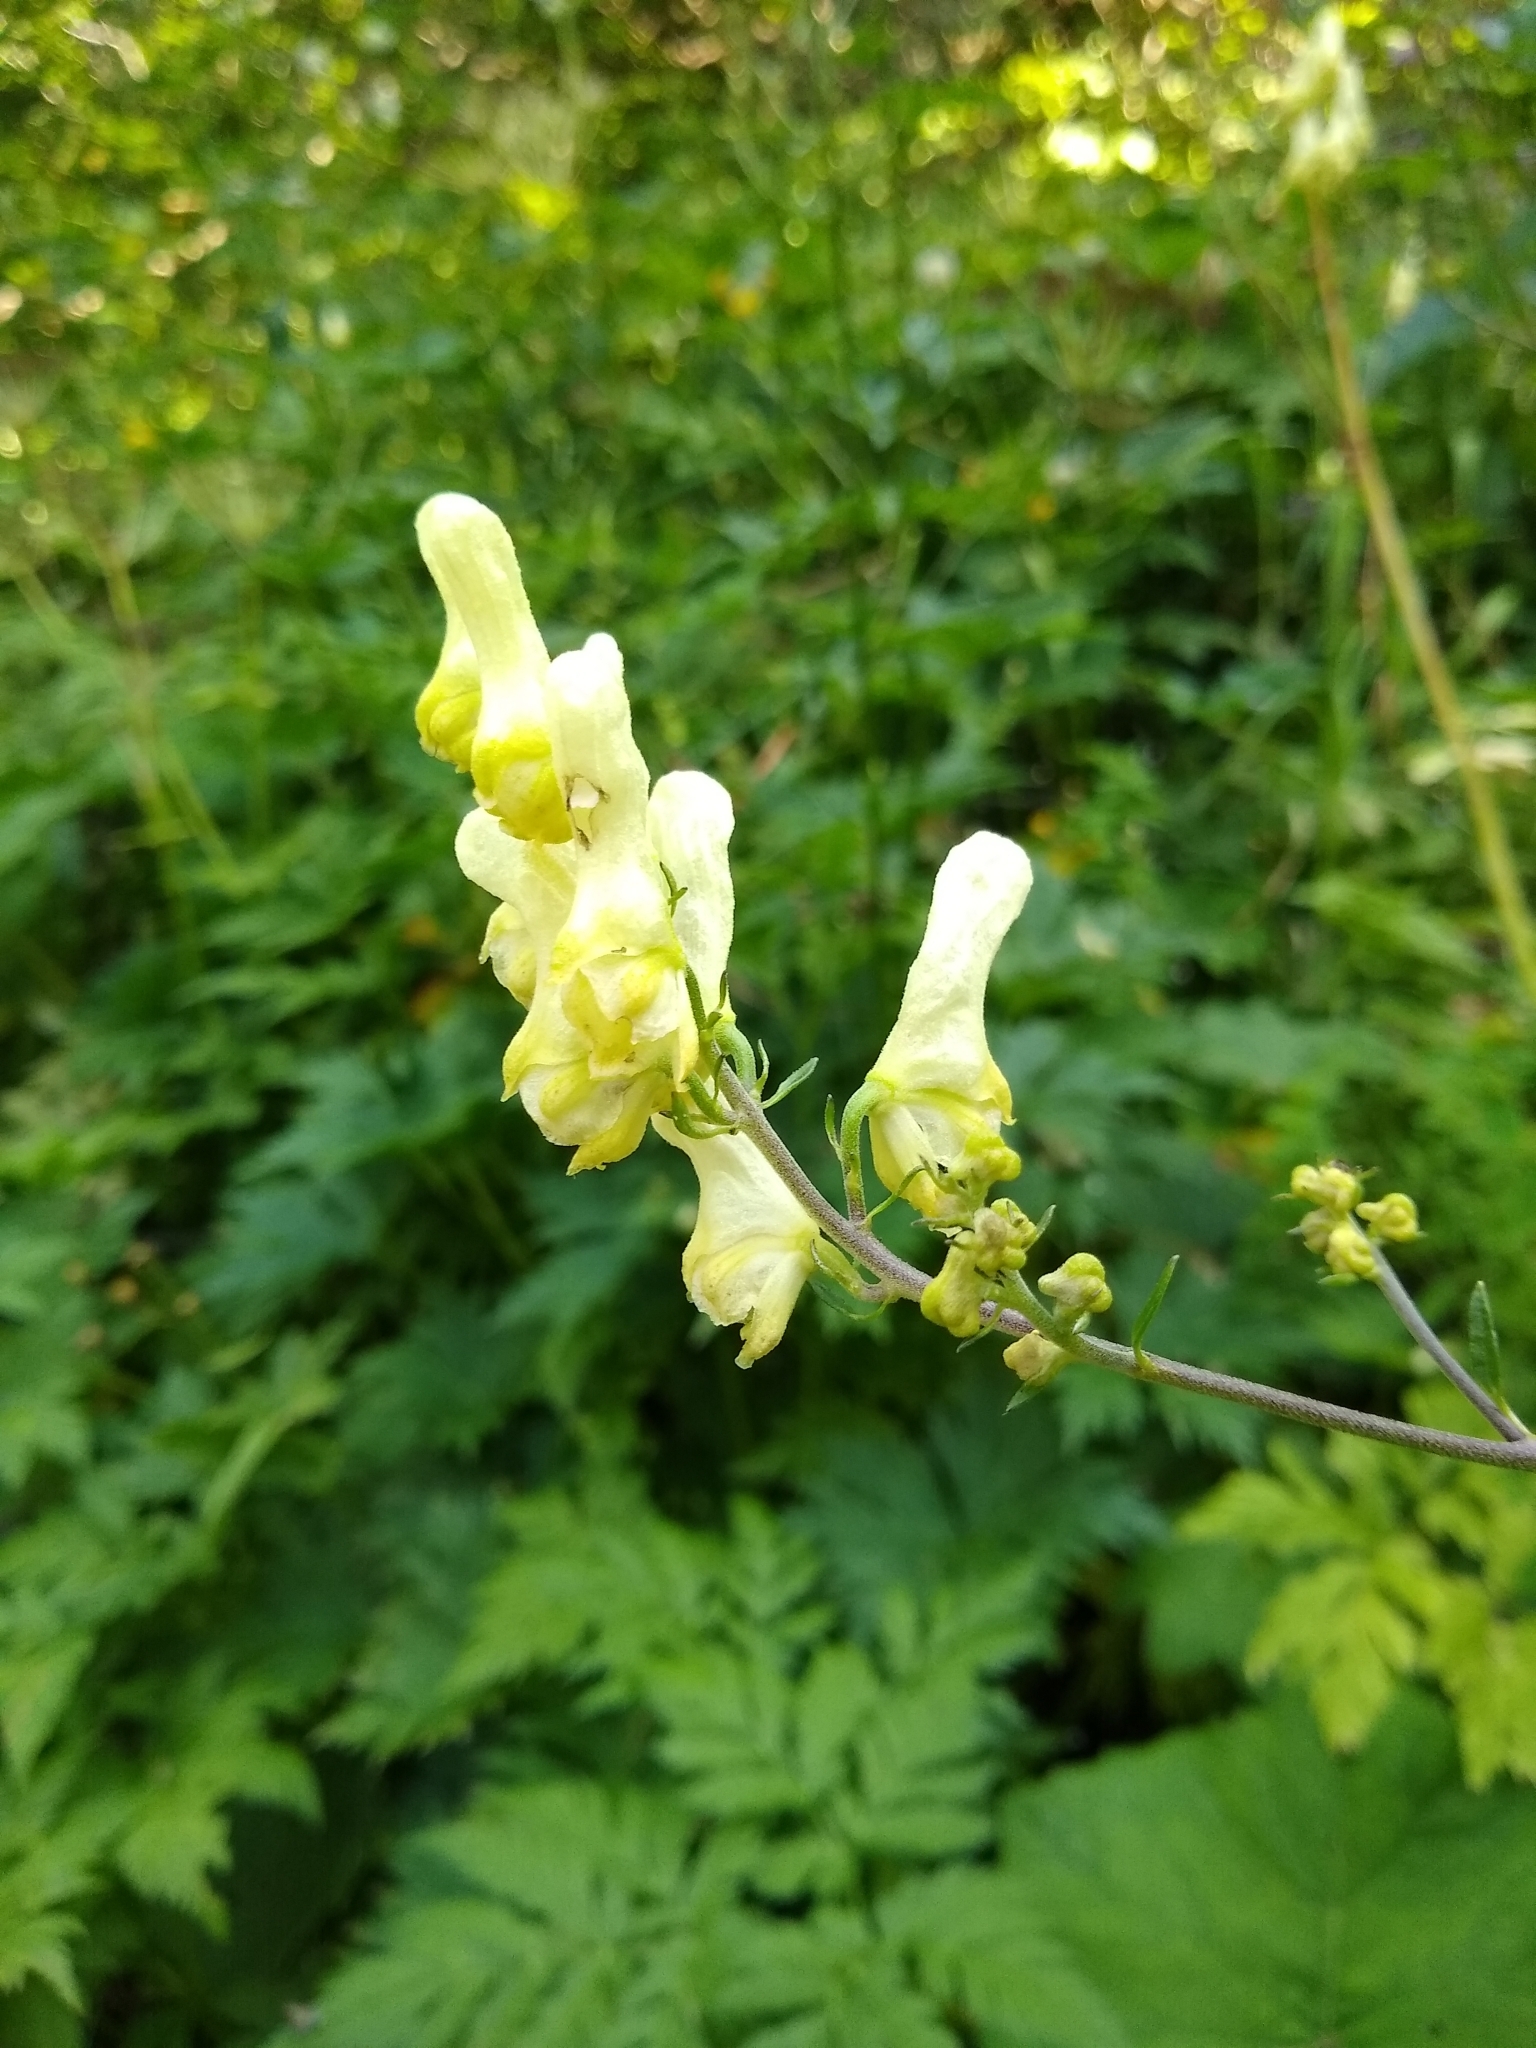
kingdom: Plantae
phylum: Tracheophyta
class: Magnoliopsida
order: Ranunculales
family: Ranunculaceae
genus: Aconitum
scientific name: Aconitum lycoctonum
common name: Wolf's-bane
